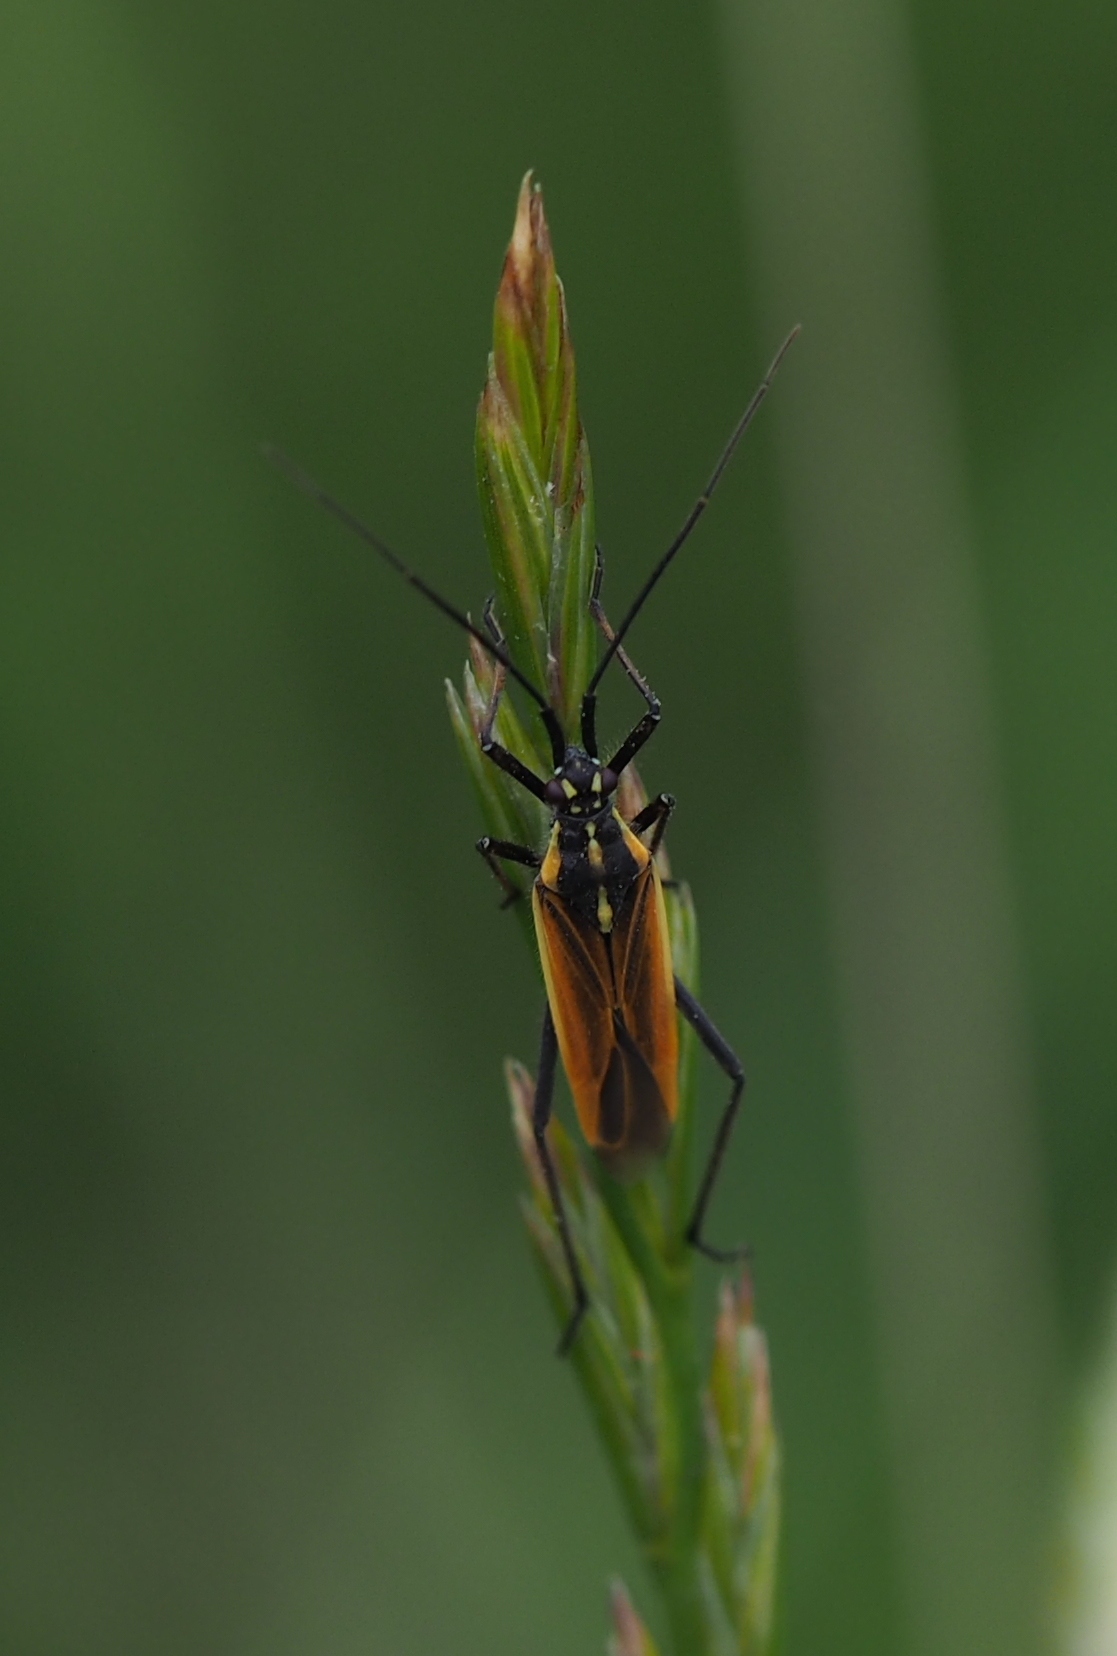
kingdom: Animalia
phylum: Arthropoda
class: Insecta
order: Hemiptera
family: Miridae
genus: Leptopterna
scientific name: Leptopterna dolabrata
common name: Meadow plant bug
